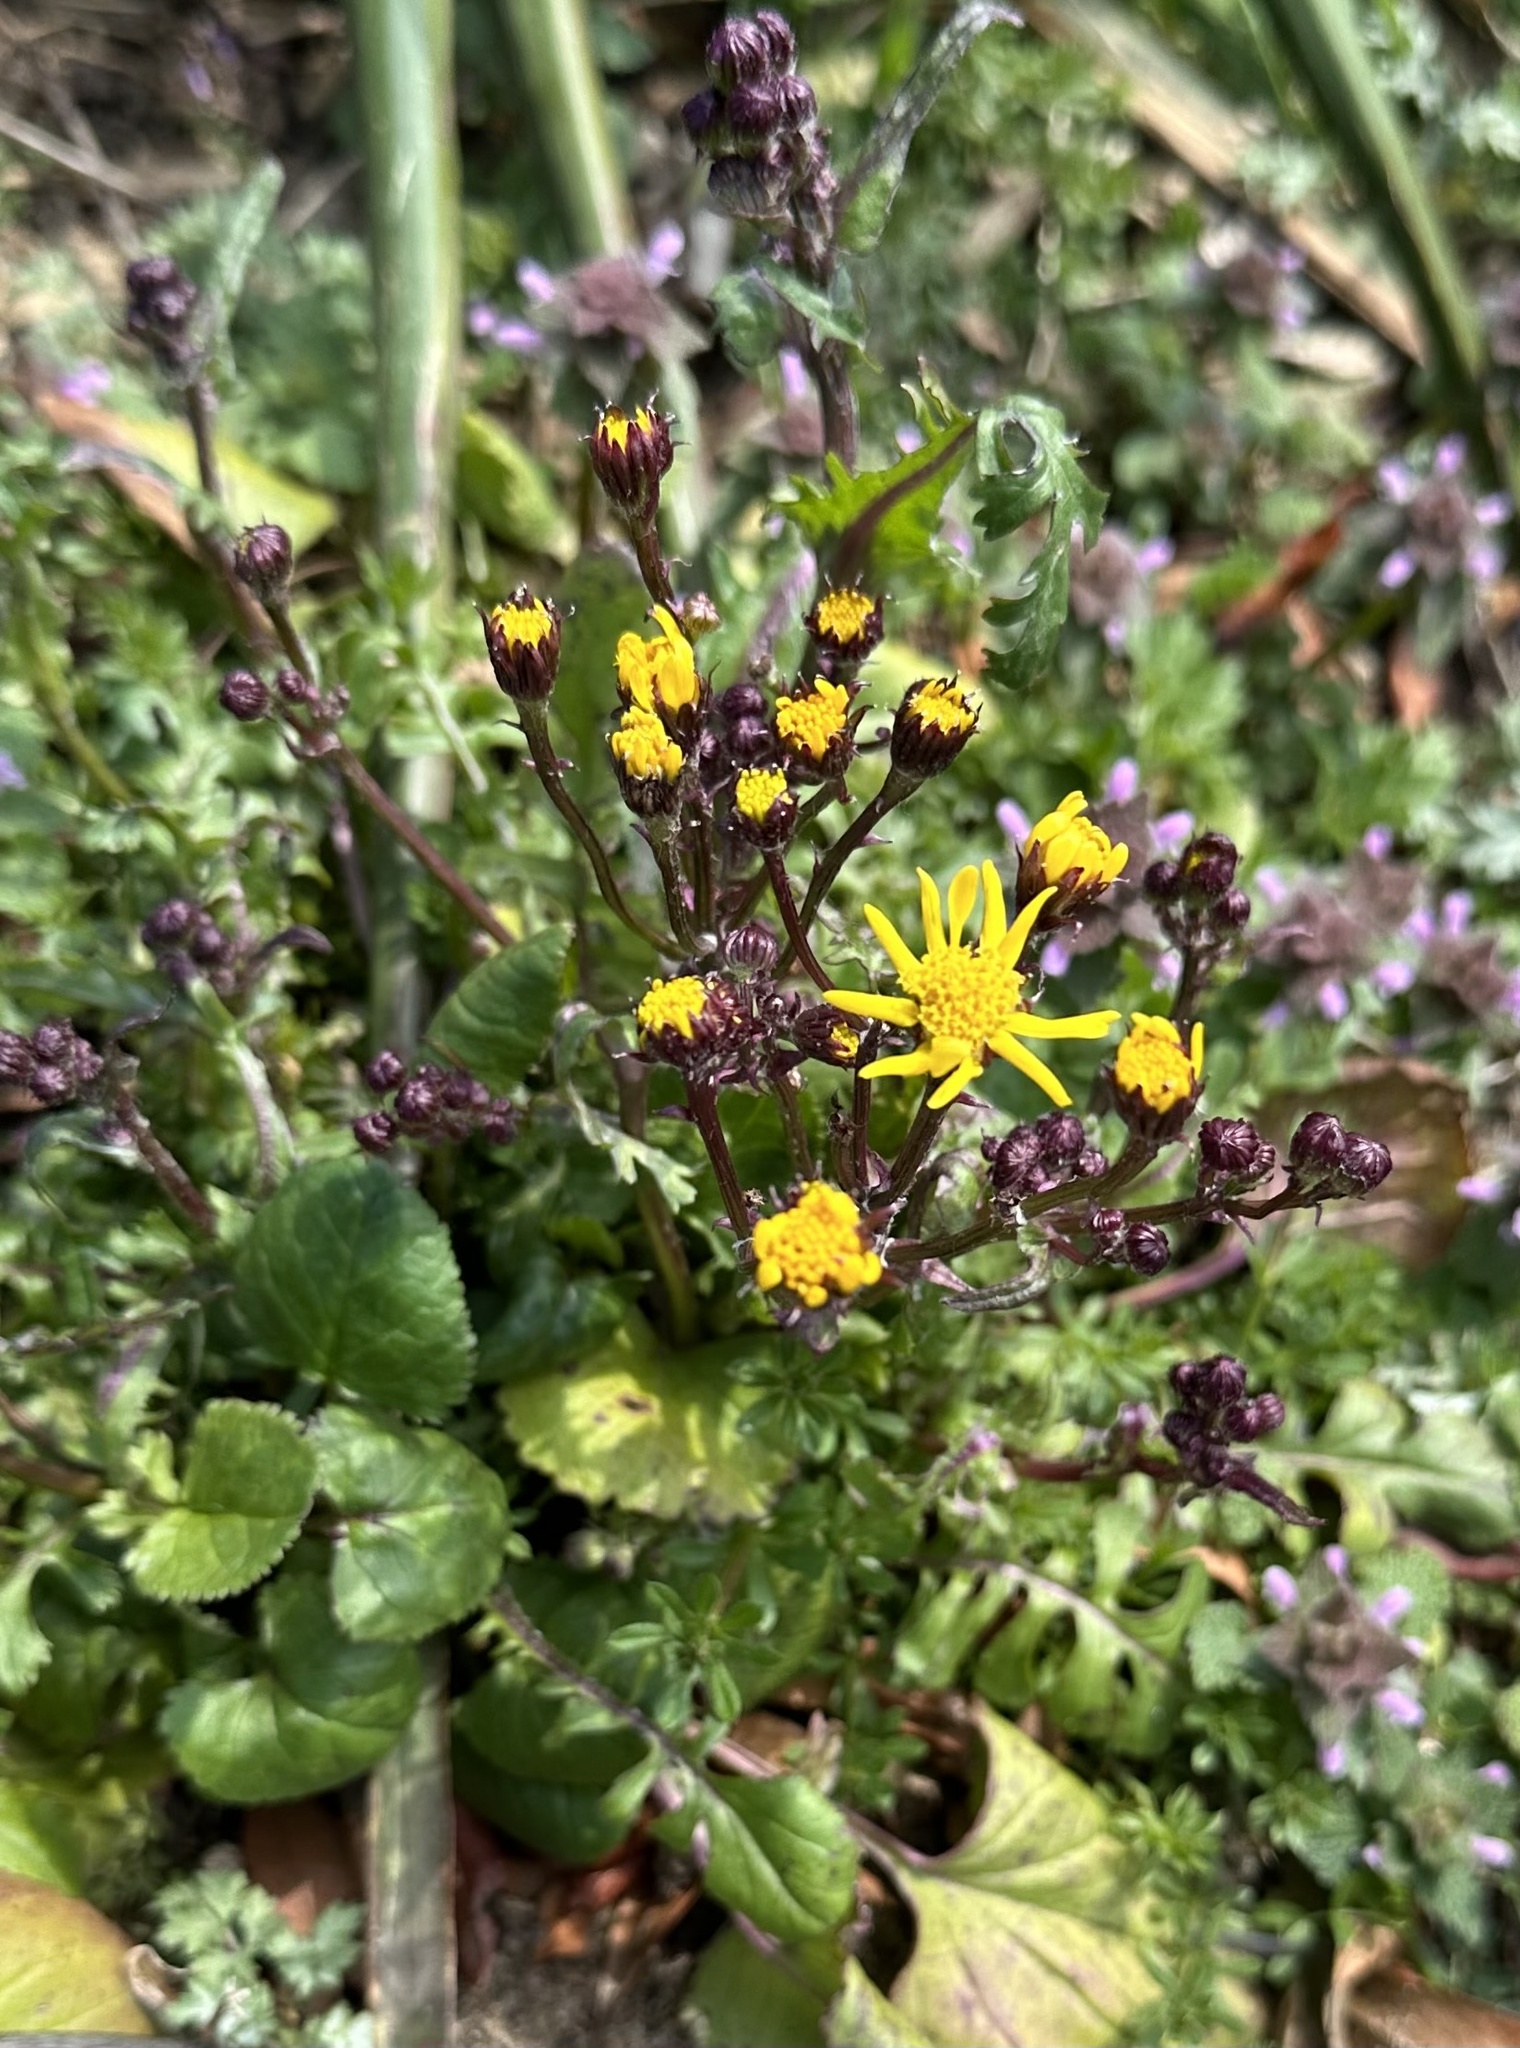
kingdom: Plantae
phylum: Tracheophyta
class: Magnoliopsida
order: Asterales
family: Asteraceae
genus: Packera
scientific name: Packera aurea
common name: Golden groundsel
